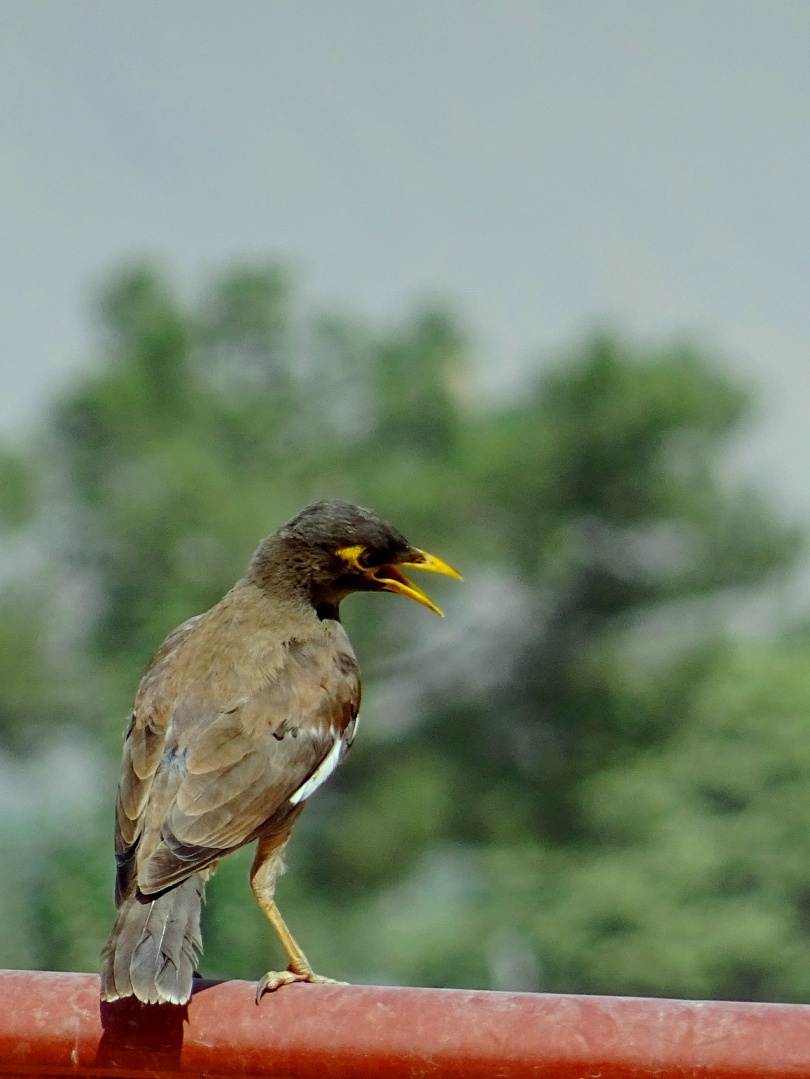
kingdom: Animalia
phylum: Chordata
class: Aves
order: Passeriformes
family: Sturnidae
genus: Acridotheres
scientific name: Acridotheres tristis
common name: Common myna
